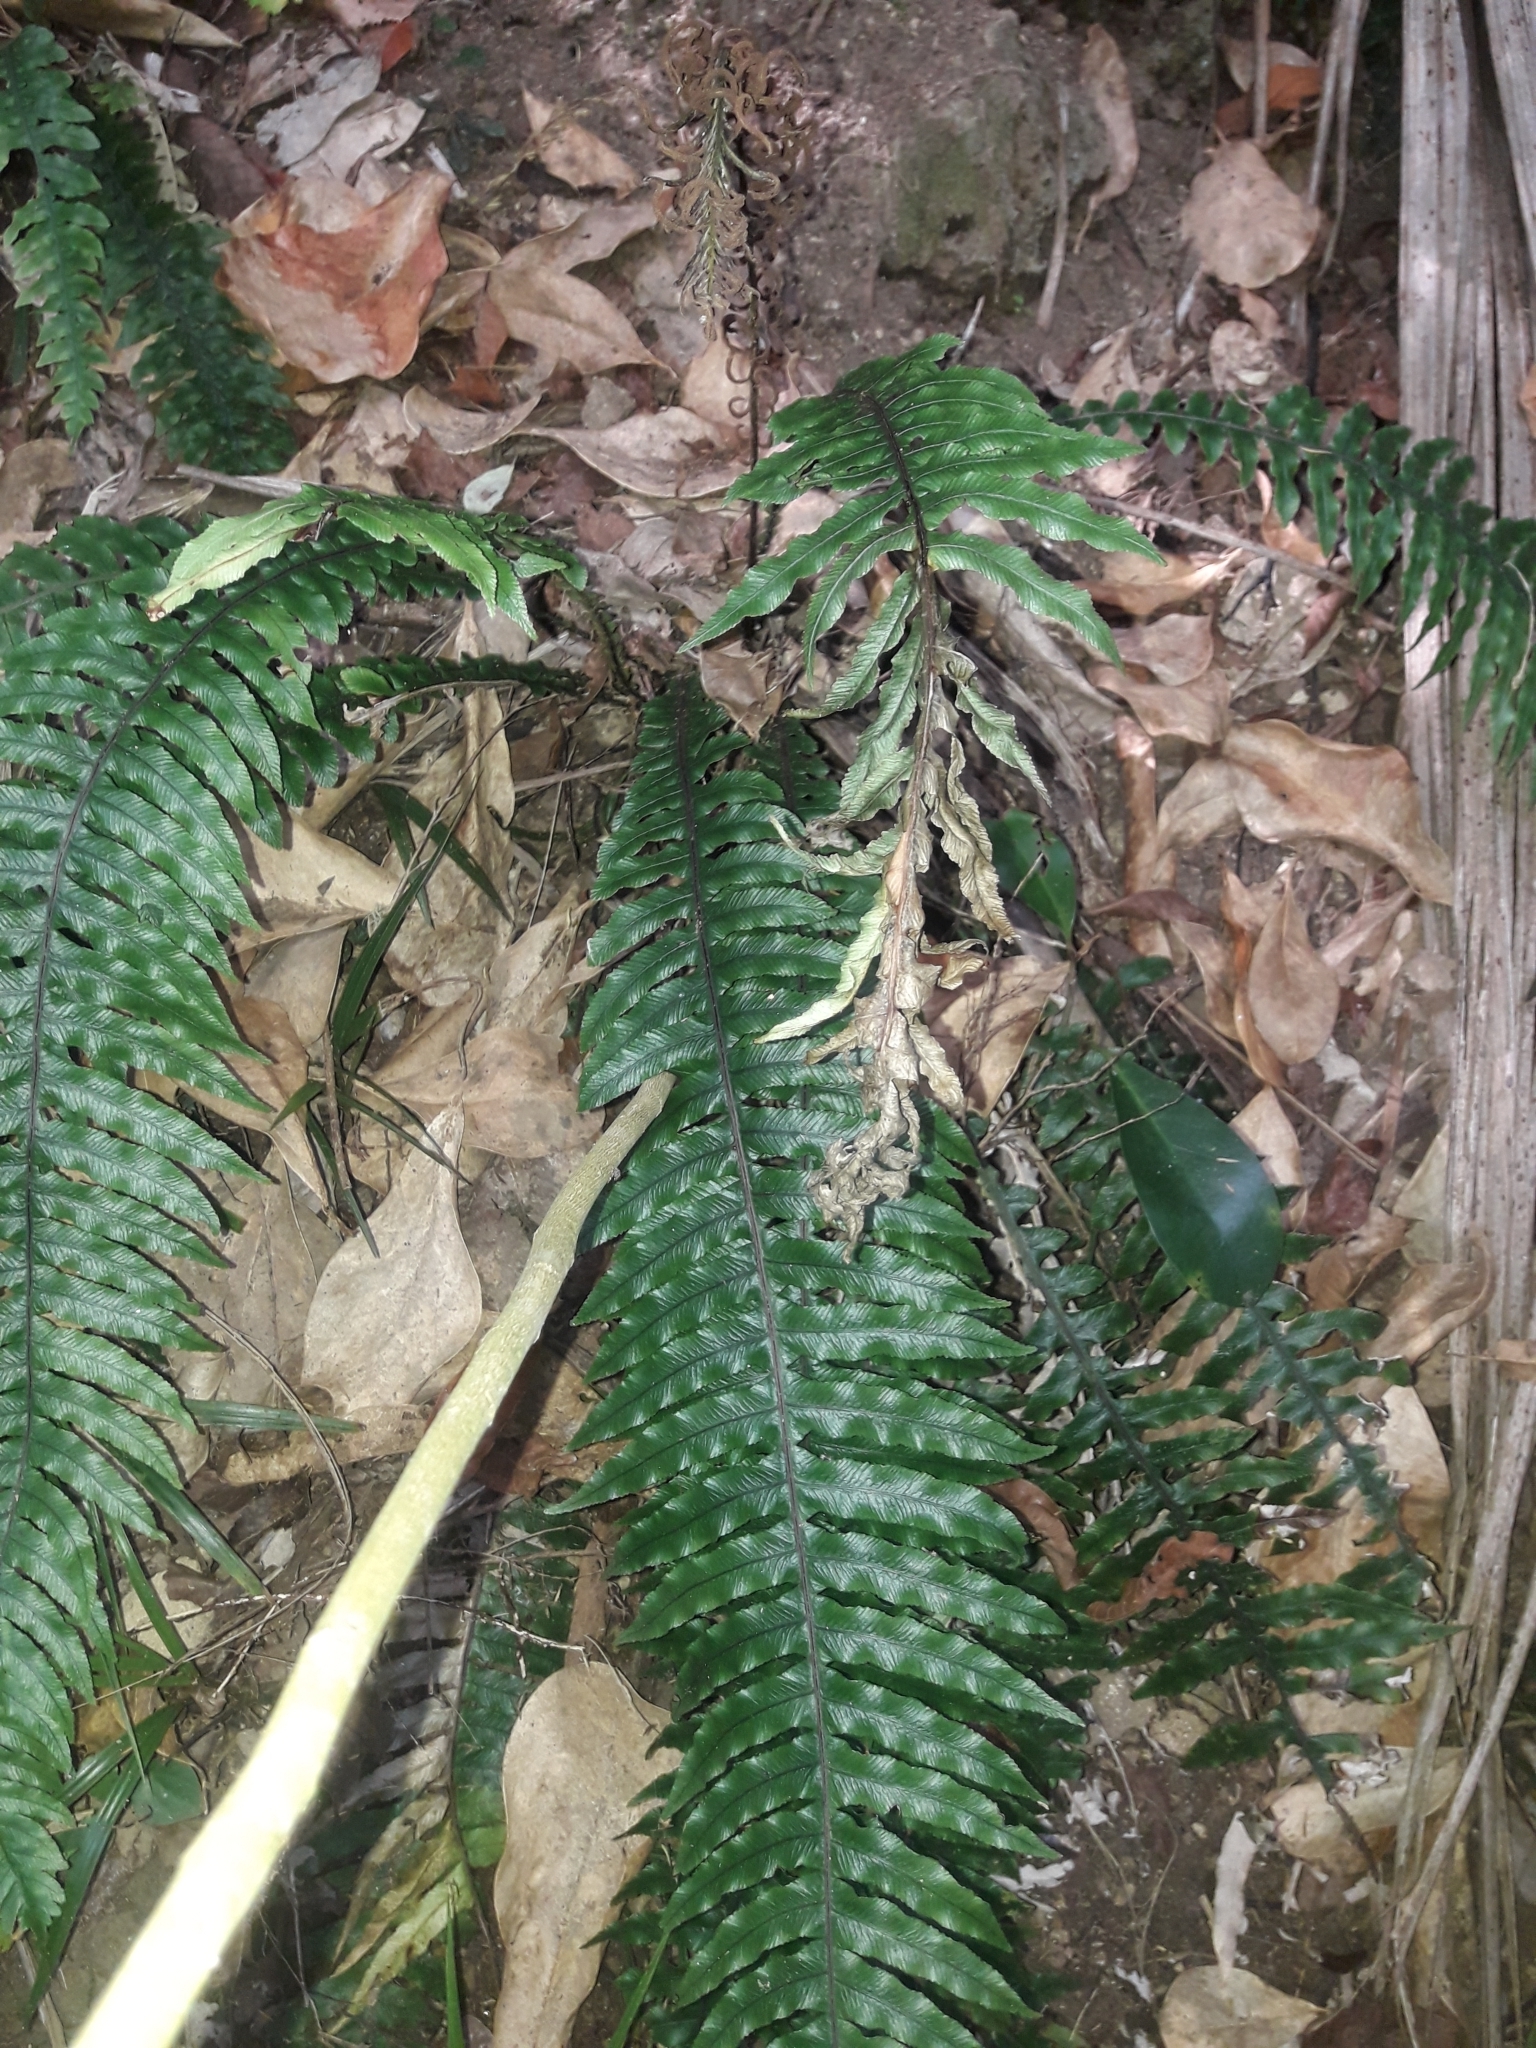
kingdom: Plantae
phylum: Tracheophyta
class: Polypodiopsida
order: Polypodiales
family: Blechnaceae
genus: Austroblechnum
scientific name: Austroblechnum lanceolatum
